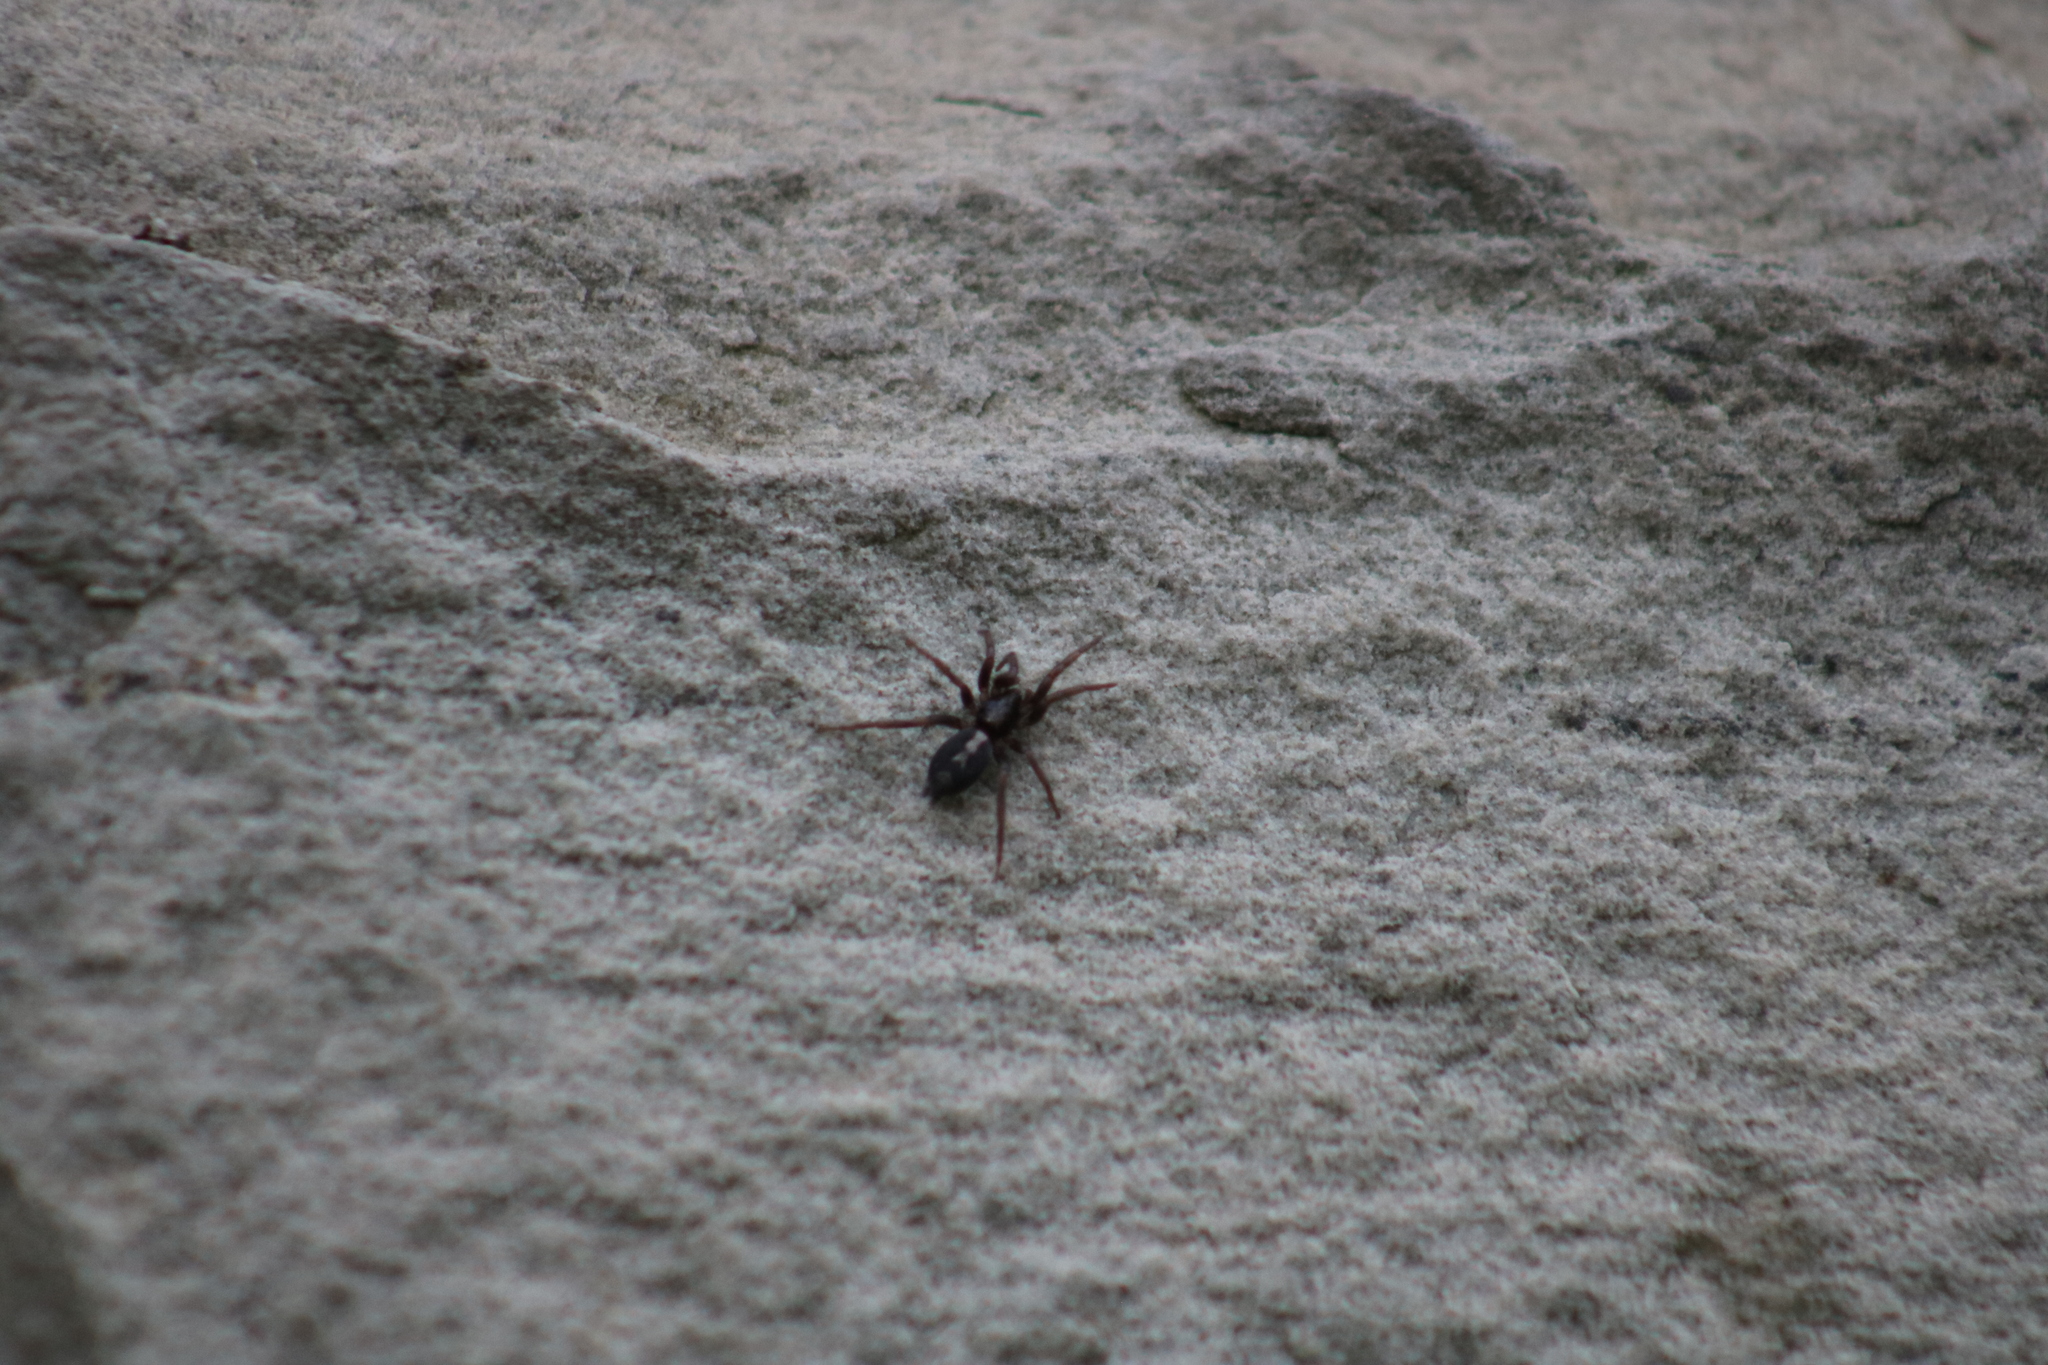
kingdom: Animalia
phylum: Arthropoda
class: Arachnida
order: Araneae
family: Gnaphosidae
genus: Herpyllus
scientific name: Herpyllus ecclesiasticus
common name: Eastern parson spider
